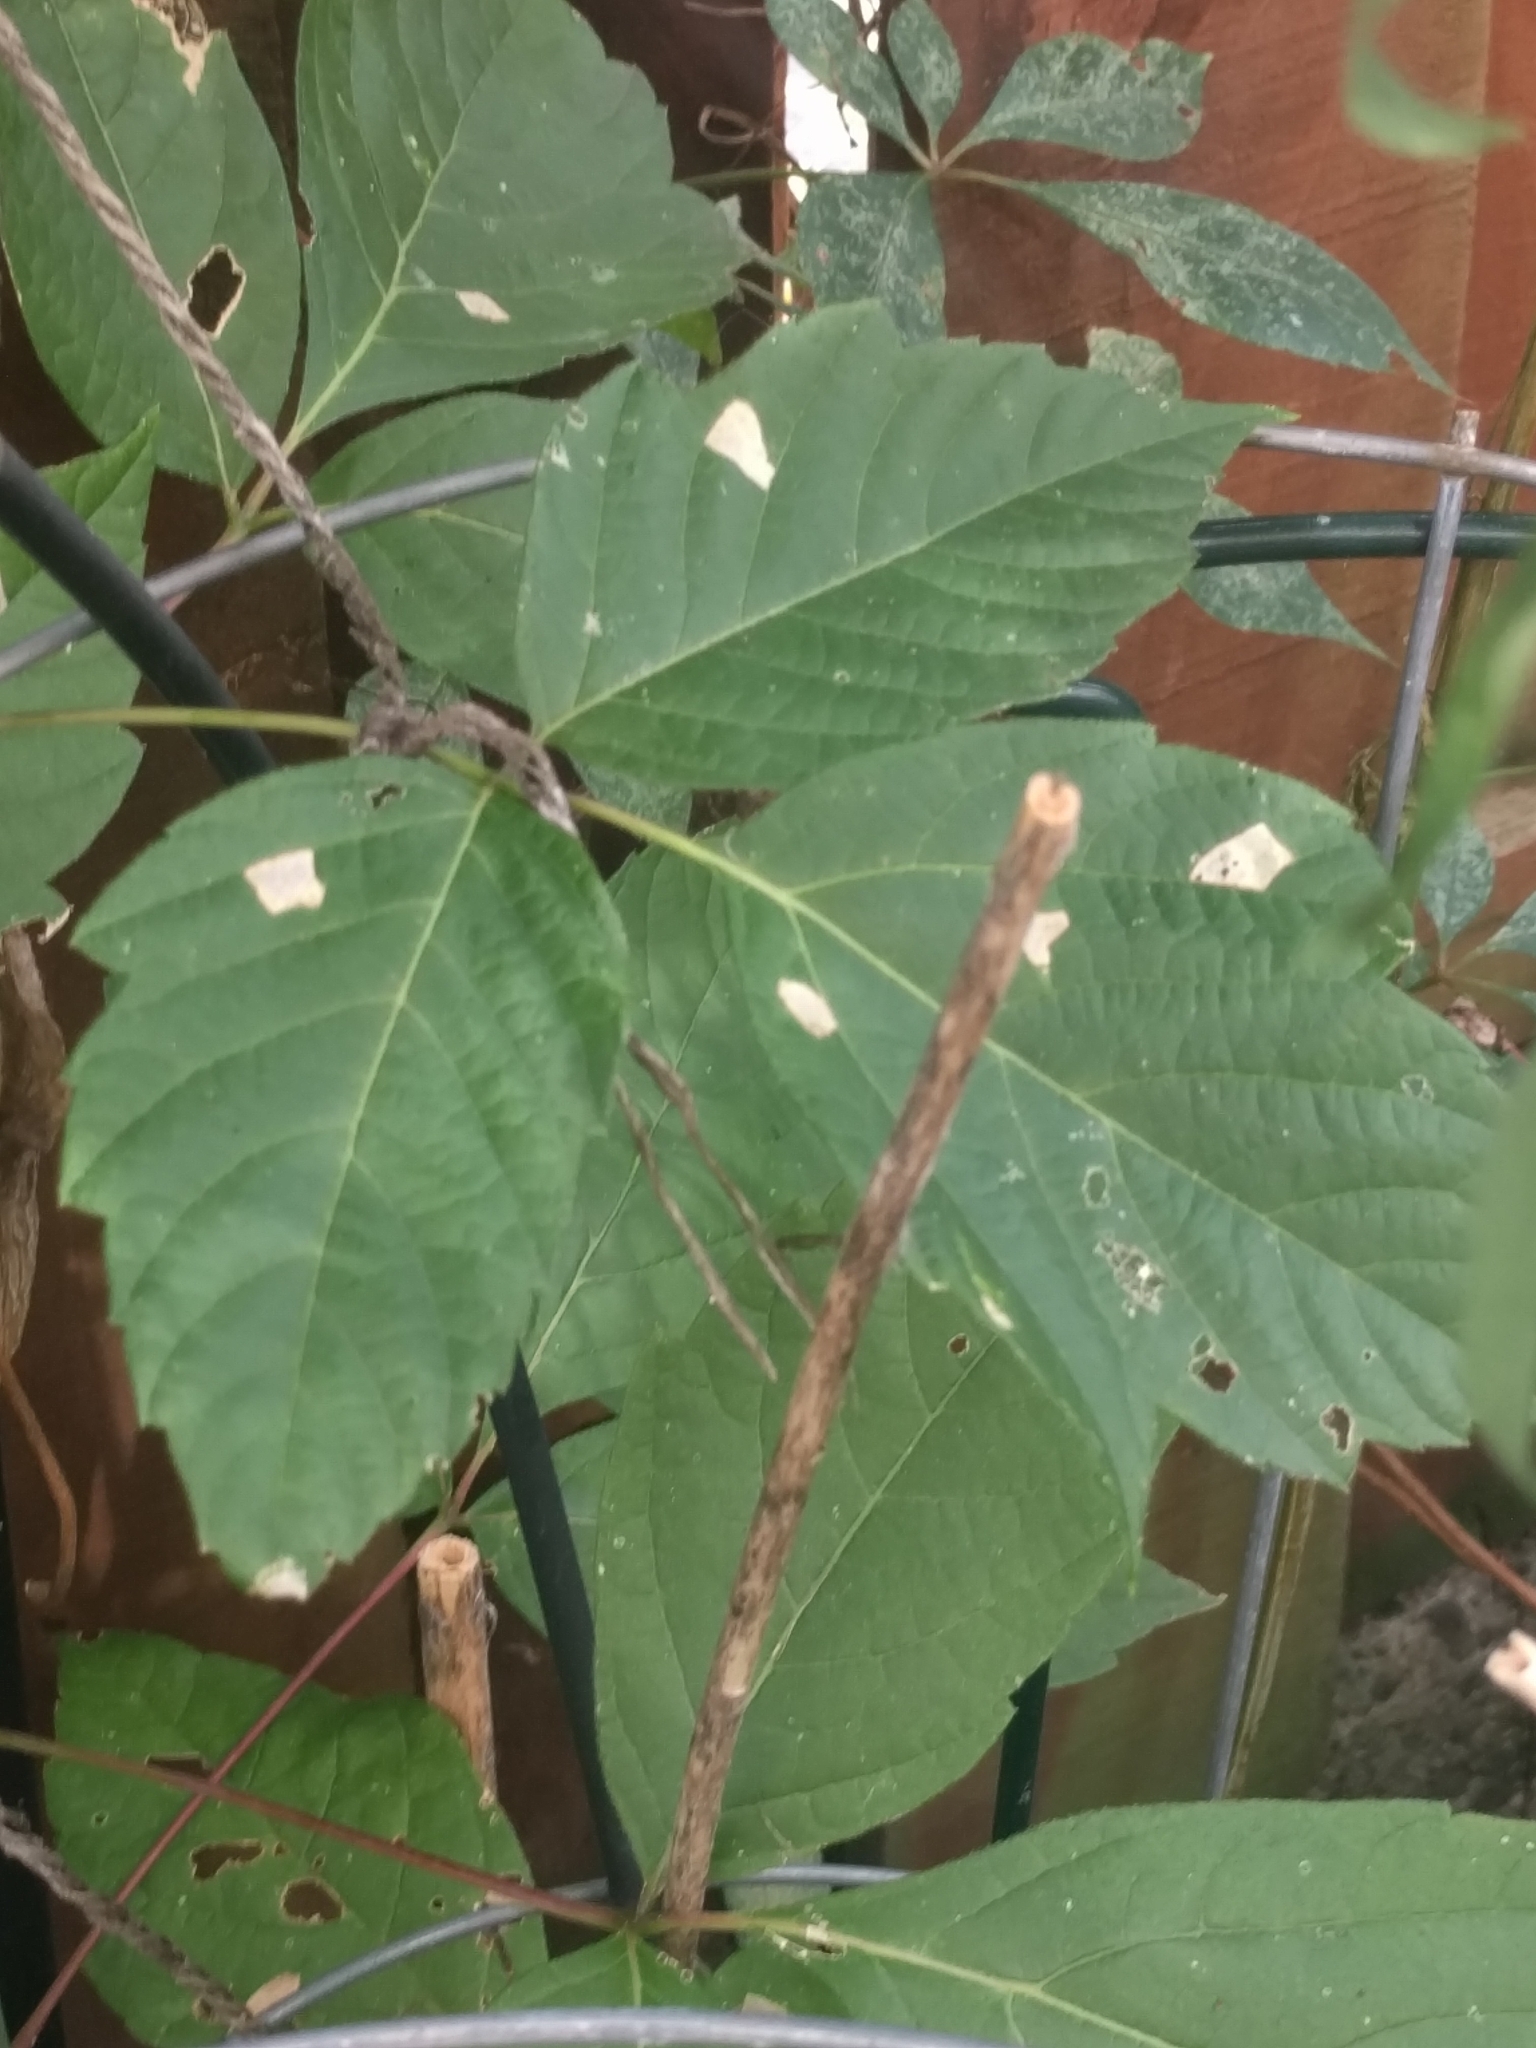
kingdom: Plantae
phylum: Tracheophyta
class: Magnoliopsida
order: Sapindales
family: Sapindaceae
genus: Acer
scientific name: Acer negundo
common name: Ashleaf maple
